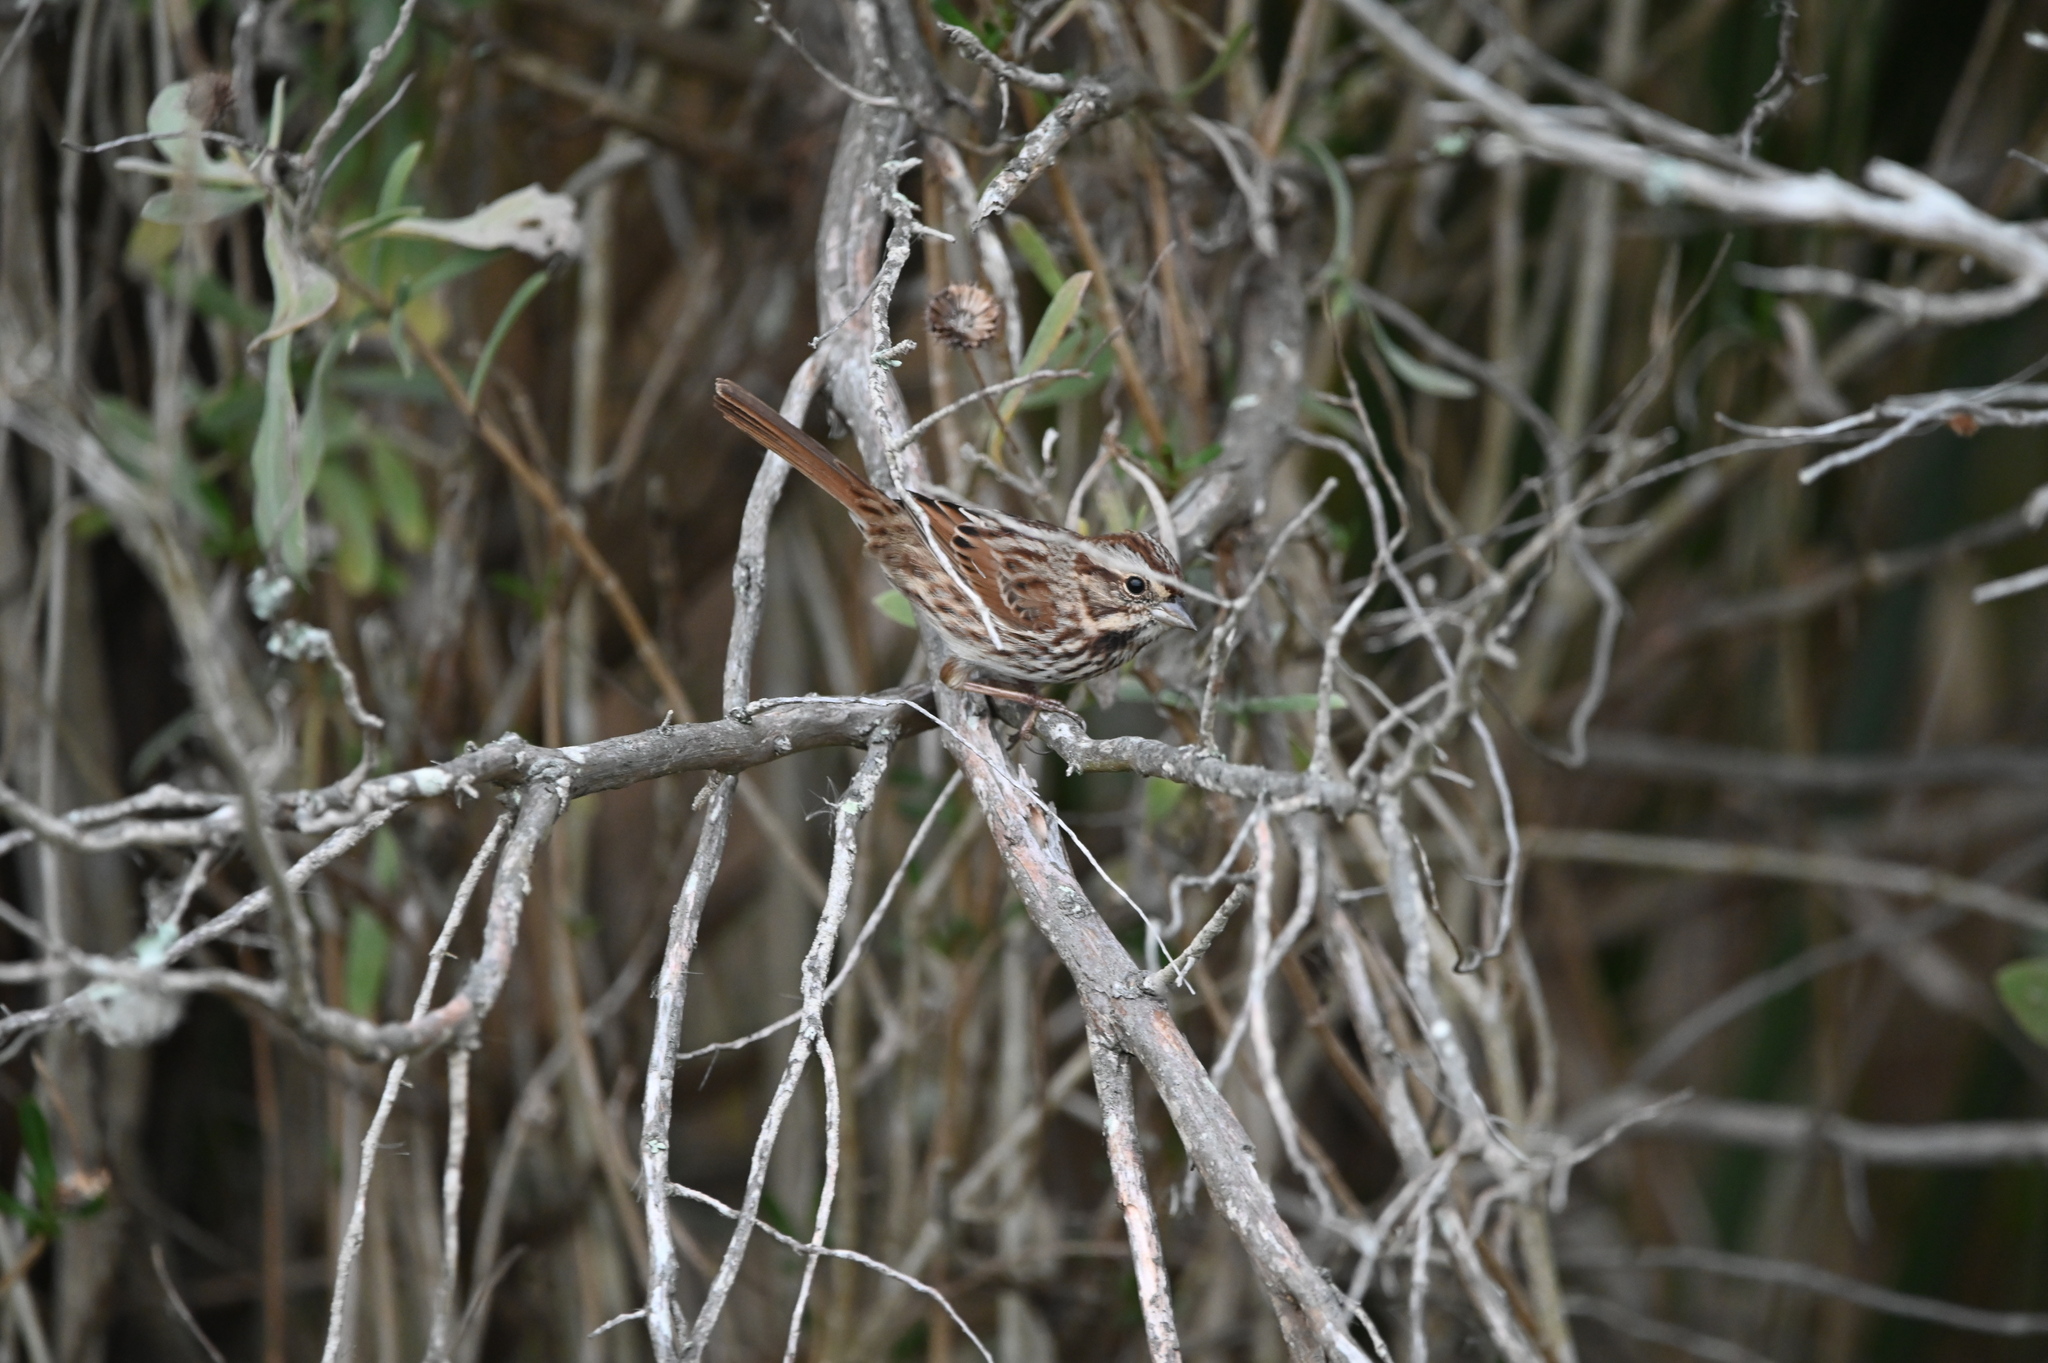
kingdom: Animalia
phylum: Chordata
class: Aves
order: Passeriformes
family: Passerellidae
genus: Melospiza
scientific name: Melospiza melodia
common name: Song sparrow
